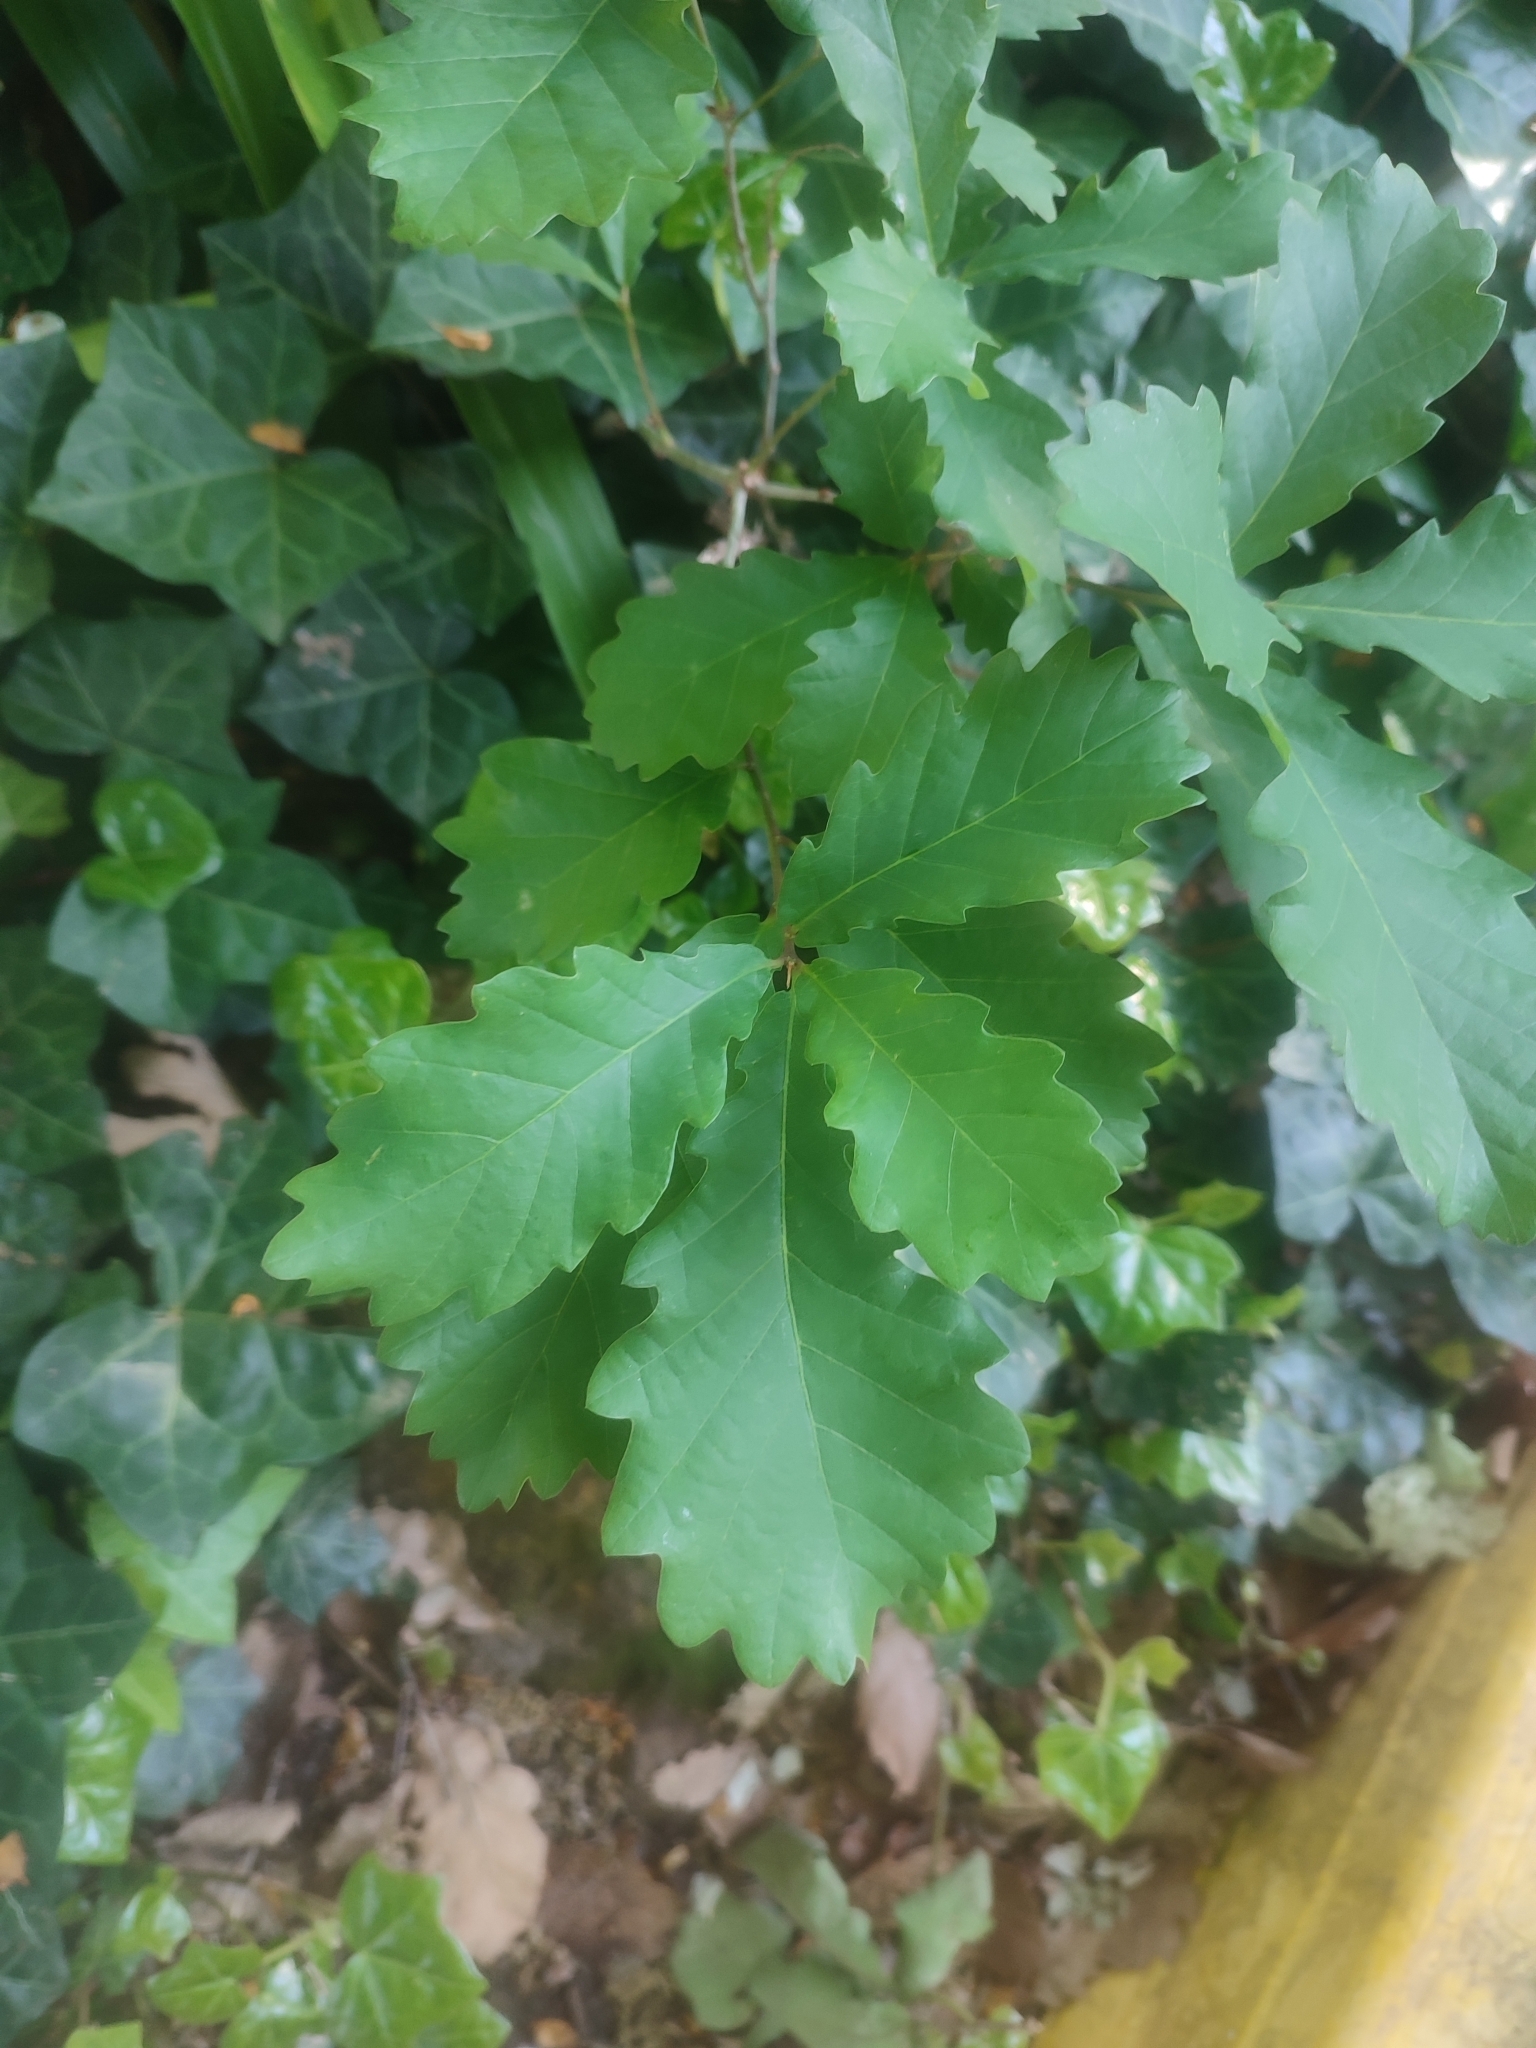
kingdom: Plantae
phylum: Tracheophyta
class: Magnoliopsida
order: Fagales
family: Fagaceae
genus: Quercus
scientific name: Quercus robur
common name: Pedunculate oak
